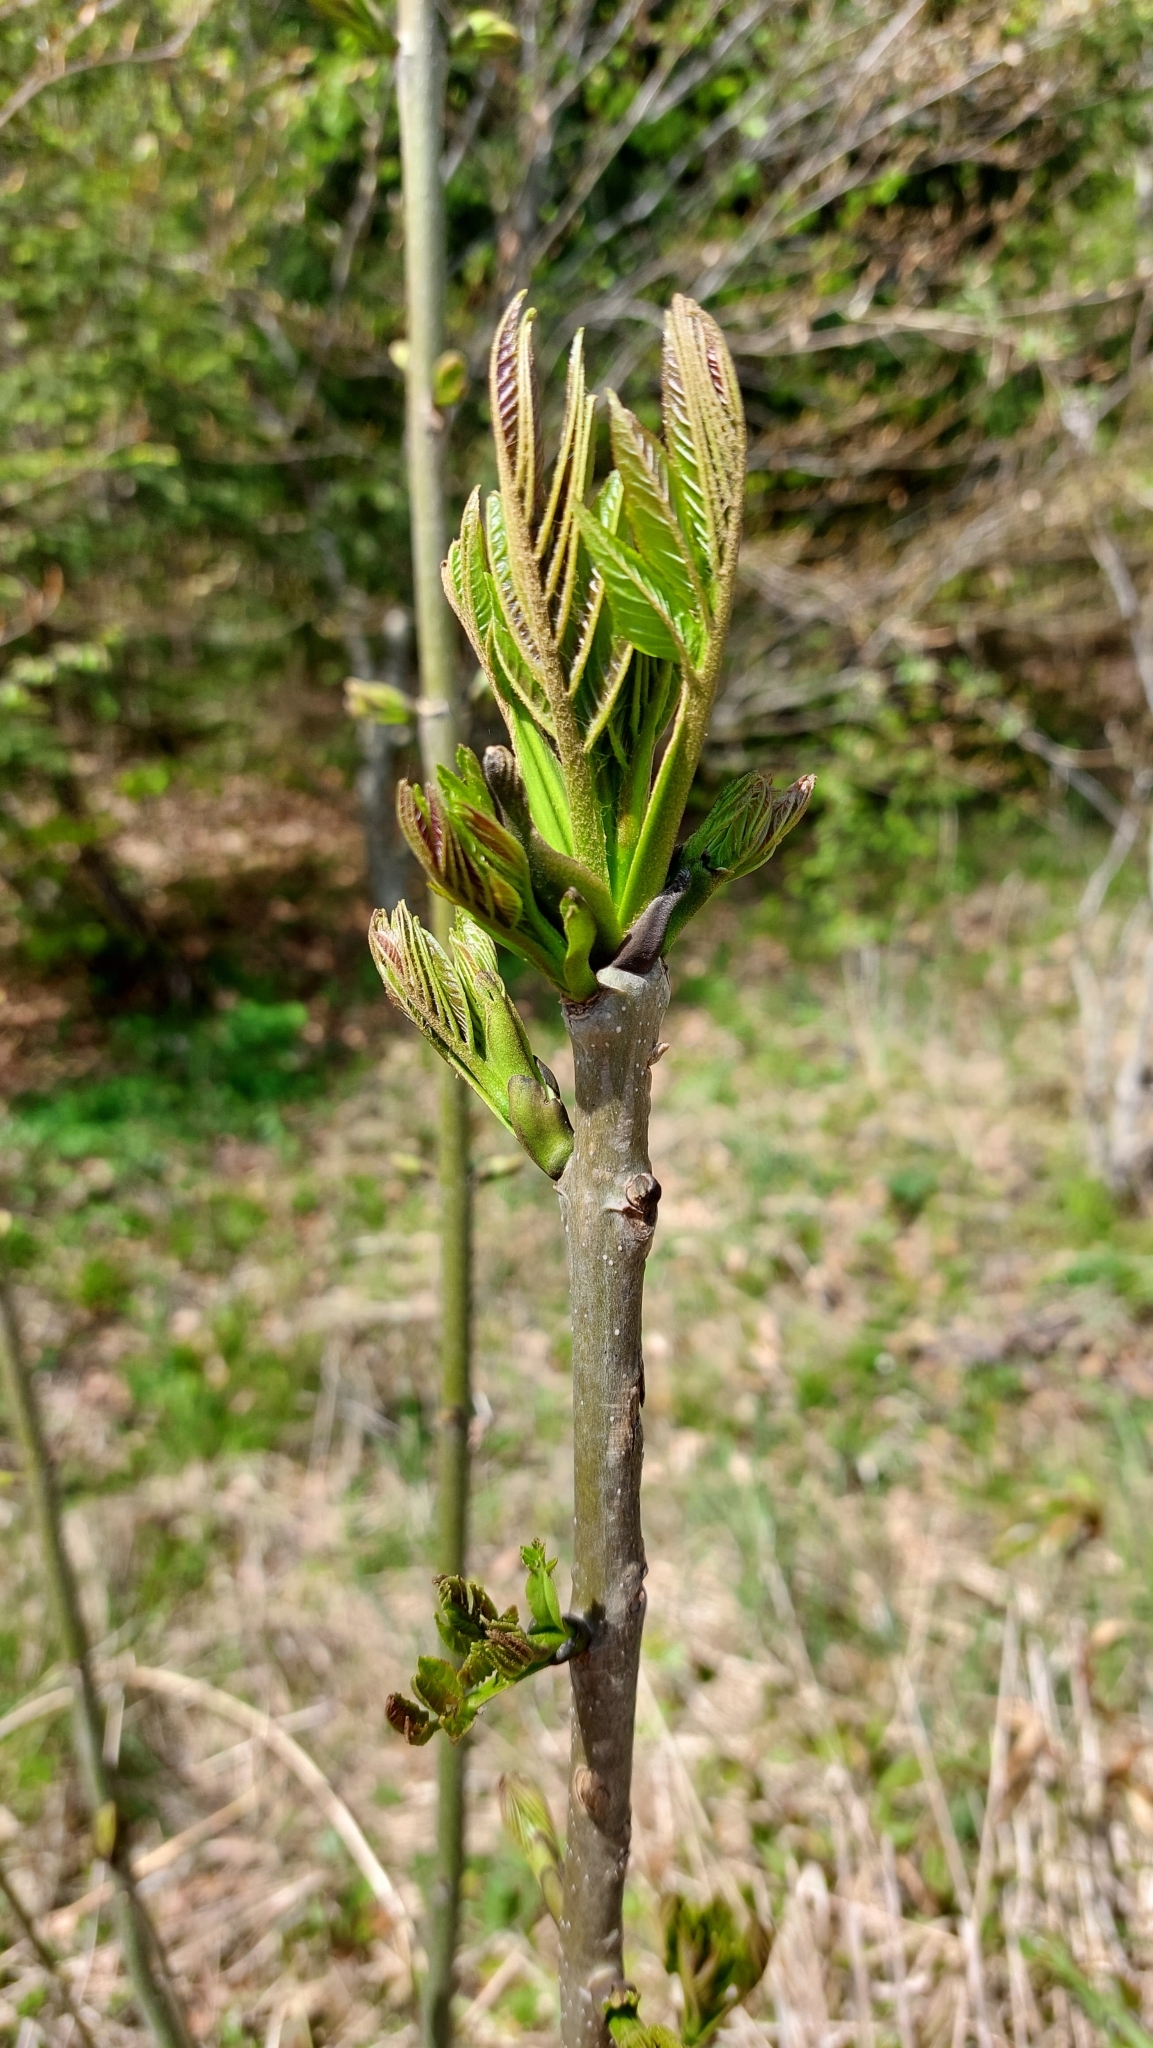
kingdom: Plantae
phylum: Tracheophyta
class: Magnoliopsida
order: Lamiales
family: Oleaceae
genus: Fraxinus
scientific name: Fraxinus excelsior
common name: European ash
